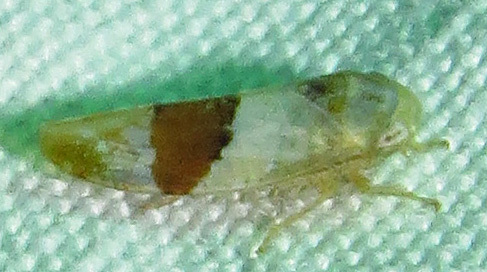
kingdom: Animalia
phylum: Arthropoda
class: Insecta
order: Hemiptera
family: Cicadellidae
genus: Norvellina
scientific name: Norvellina seminuda
